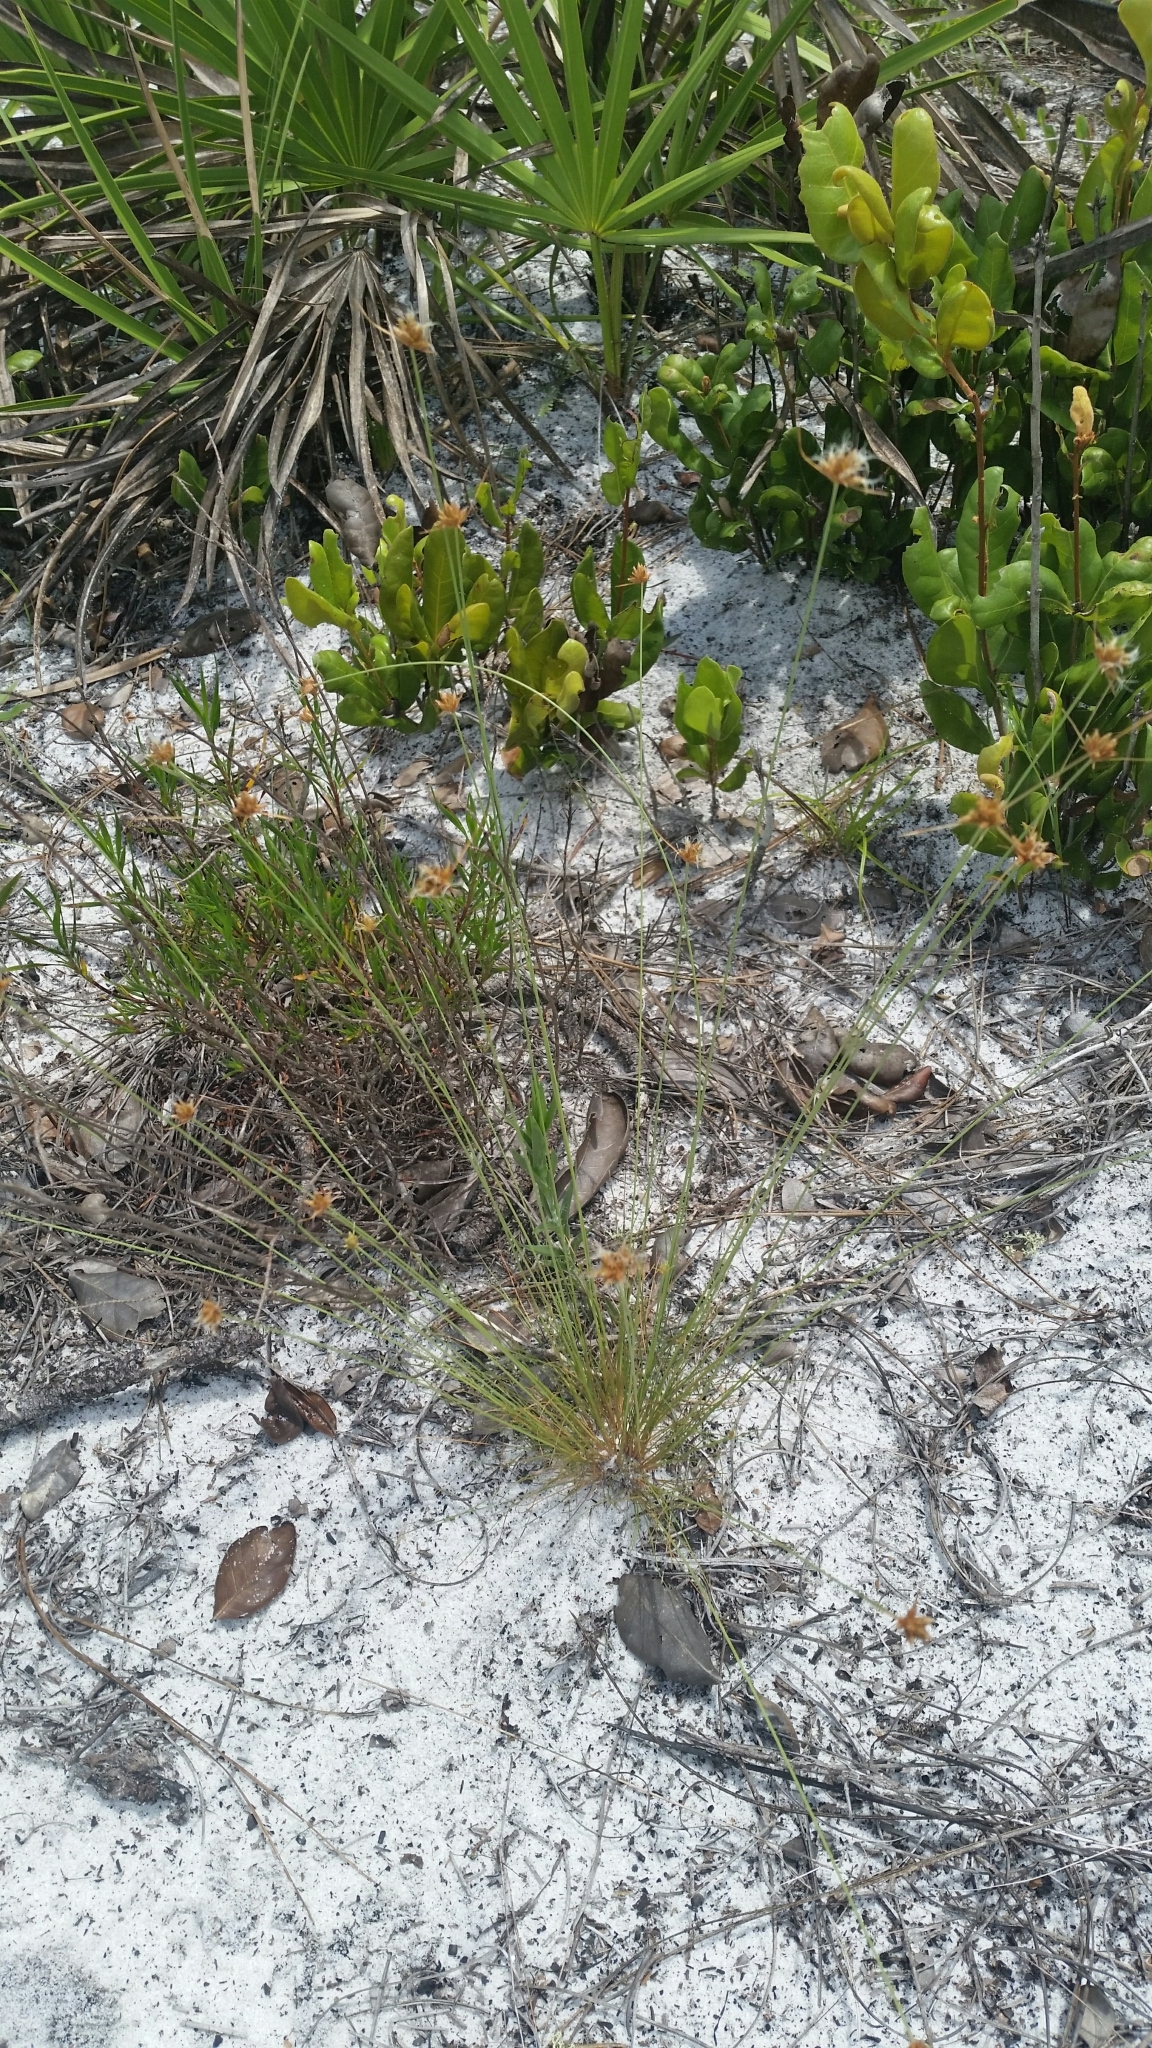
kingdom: Plantae
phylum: Tracheophyta
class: Liliopsida
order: Poales
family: Cyperaceae
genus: Bulbostylis
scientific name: Bulbostylis warei
